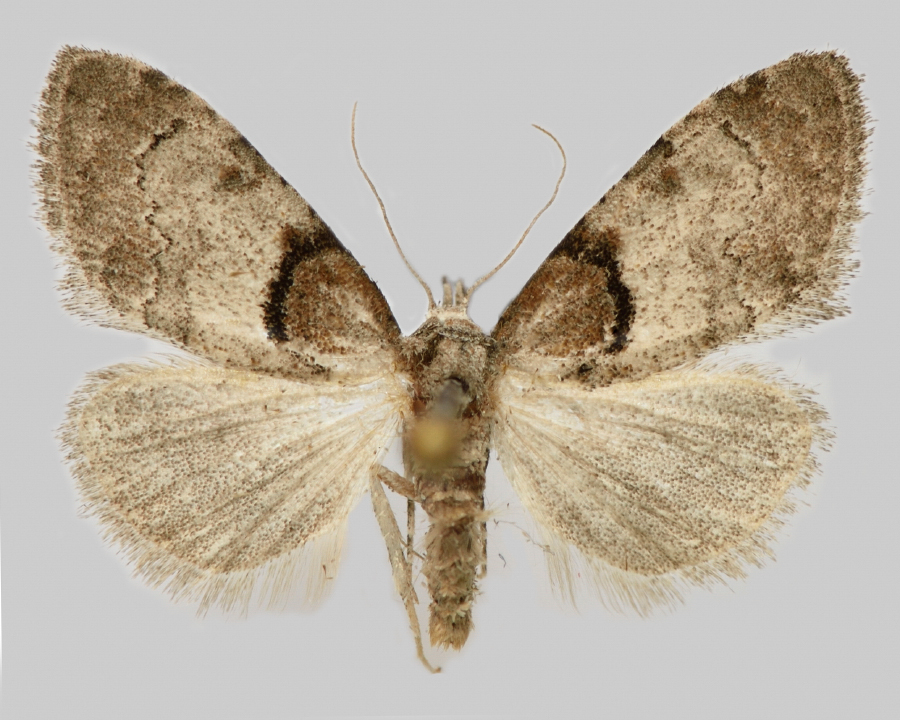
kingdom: Animalia
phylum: Arthropoda
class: Insecta
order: Lepidoptera
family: Nolidae
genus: Nola
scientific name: Nola cucullatella
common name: Short-cloaked moth
